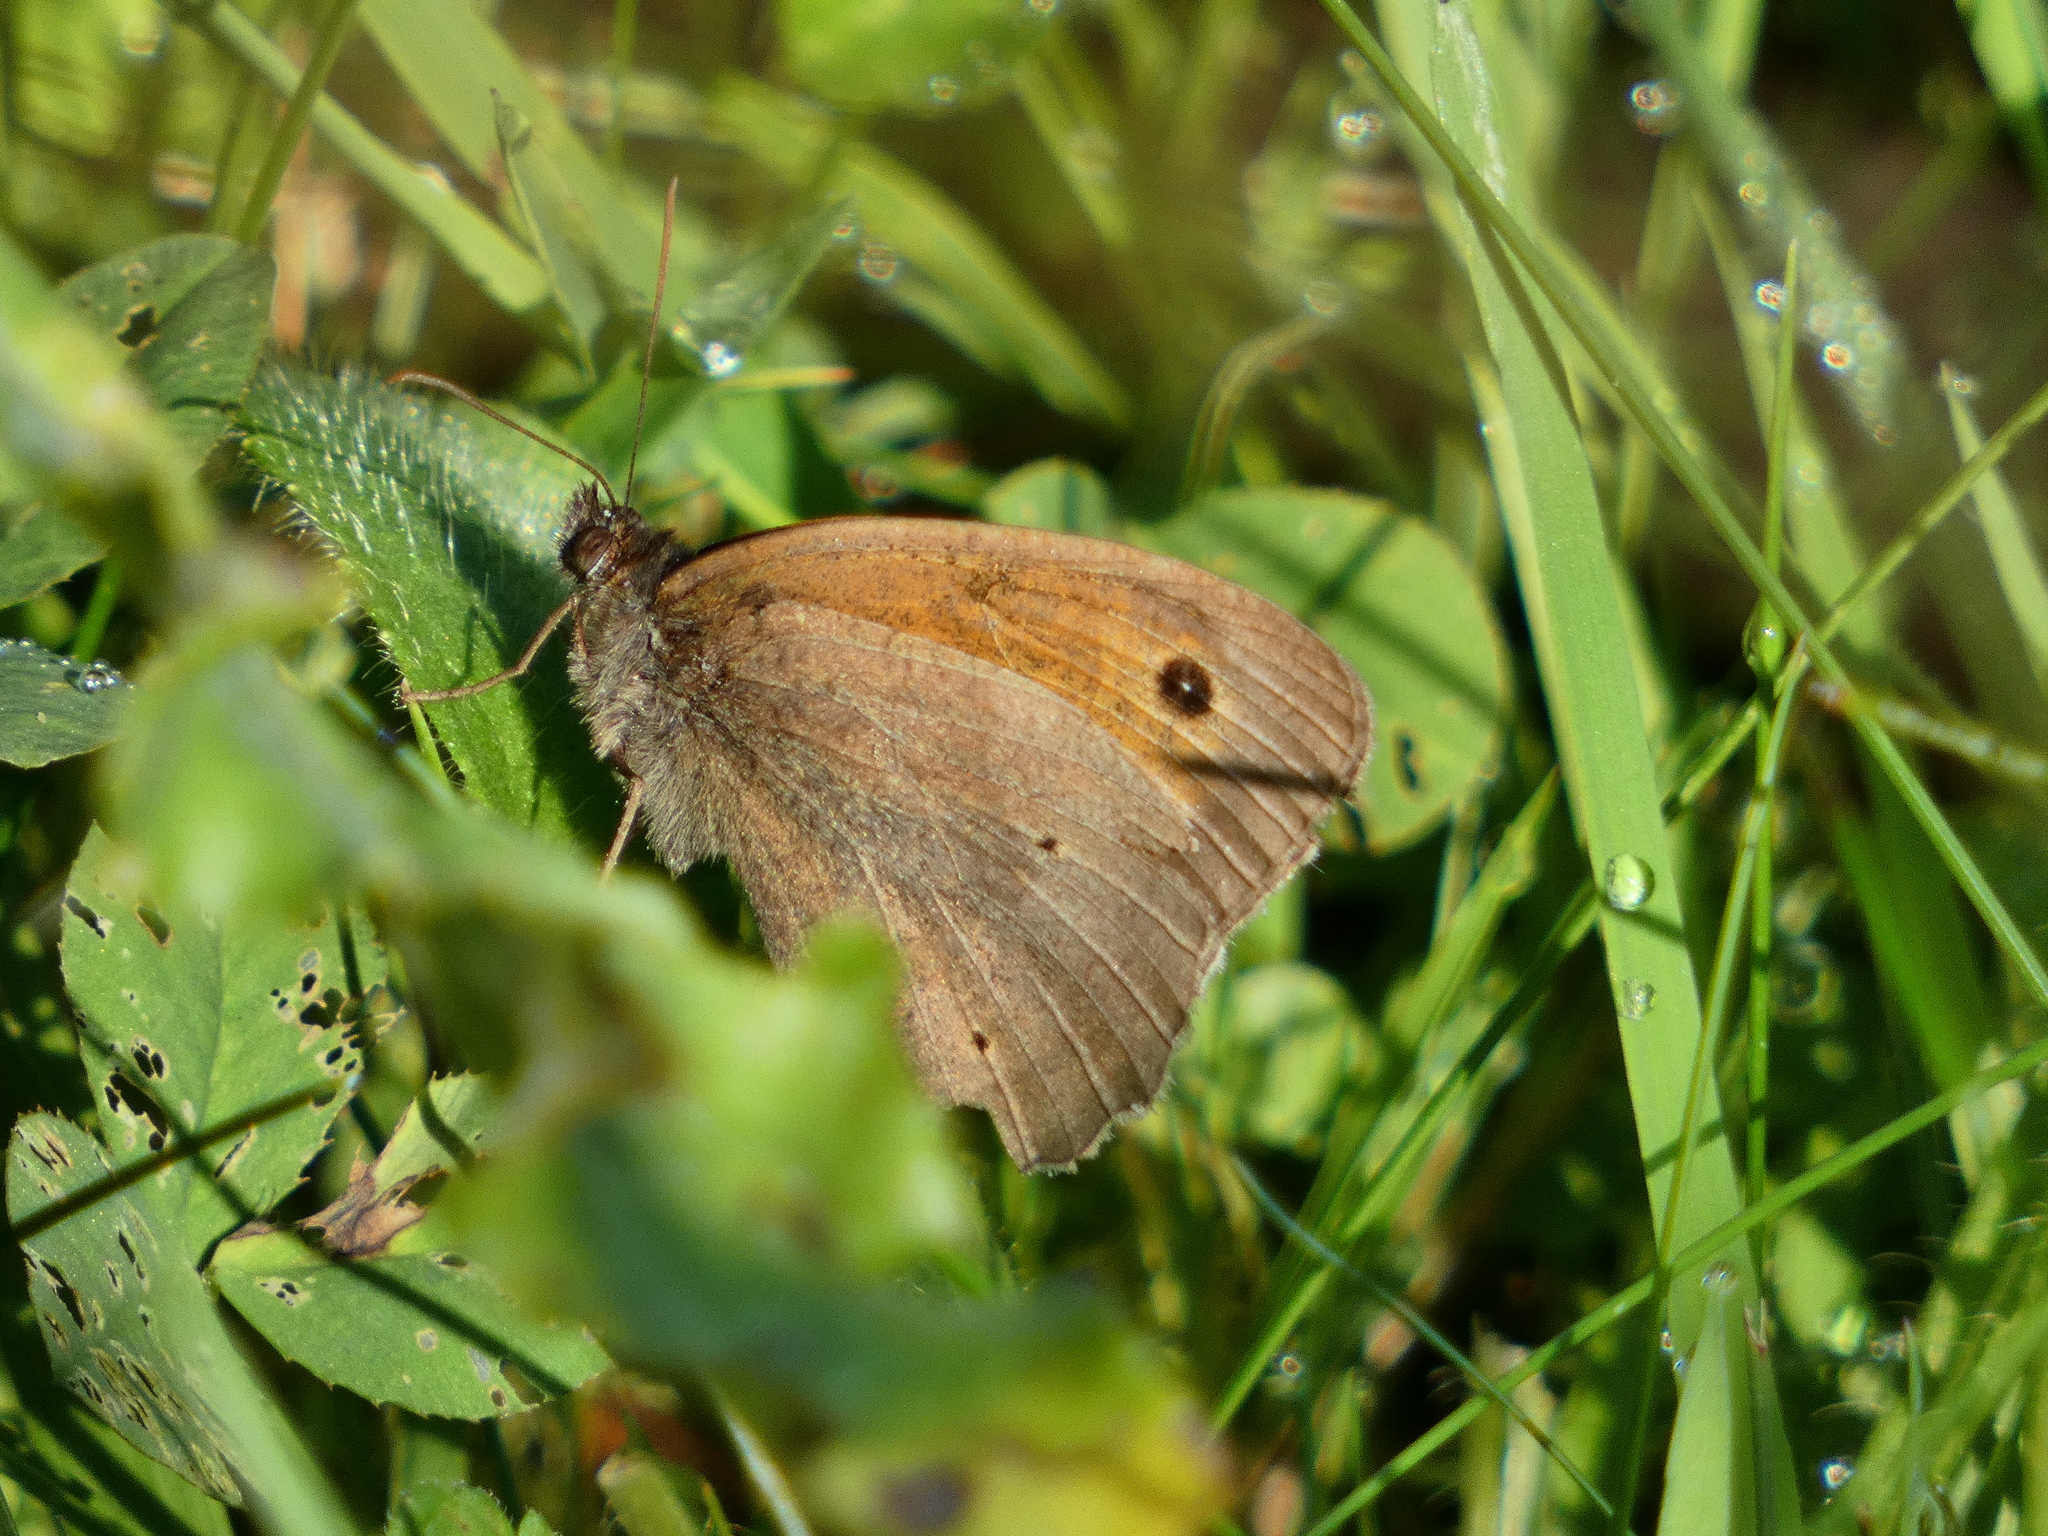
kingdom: Animalia
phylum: Arthropoda
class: Insecta
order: Lepidoptera
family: Nymphalidae
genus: Maniola
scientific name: Maniola jurtina
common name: Meadow brown
